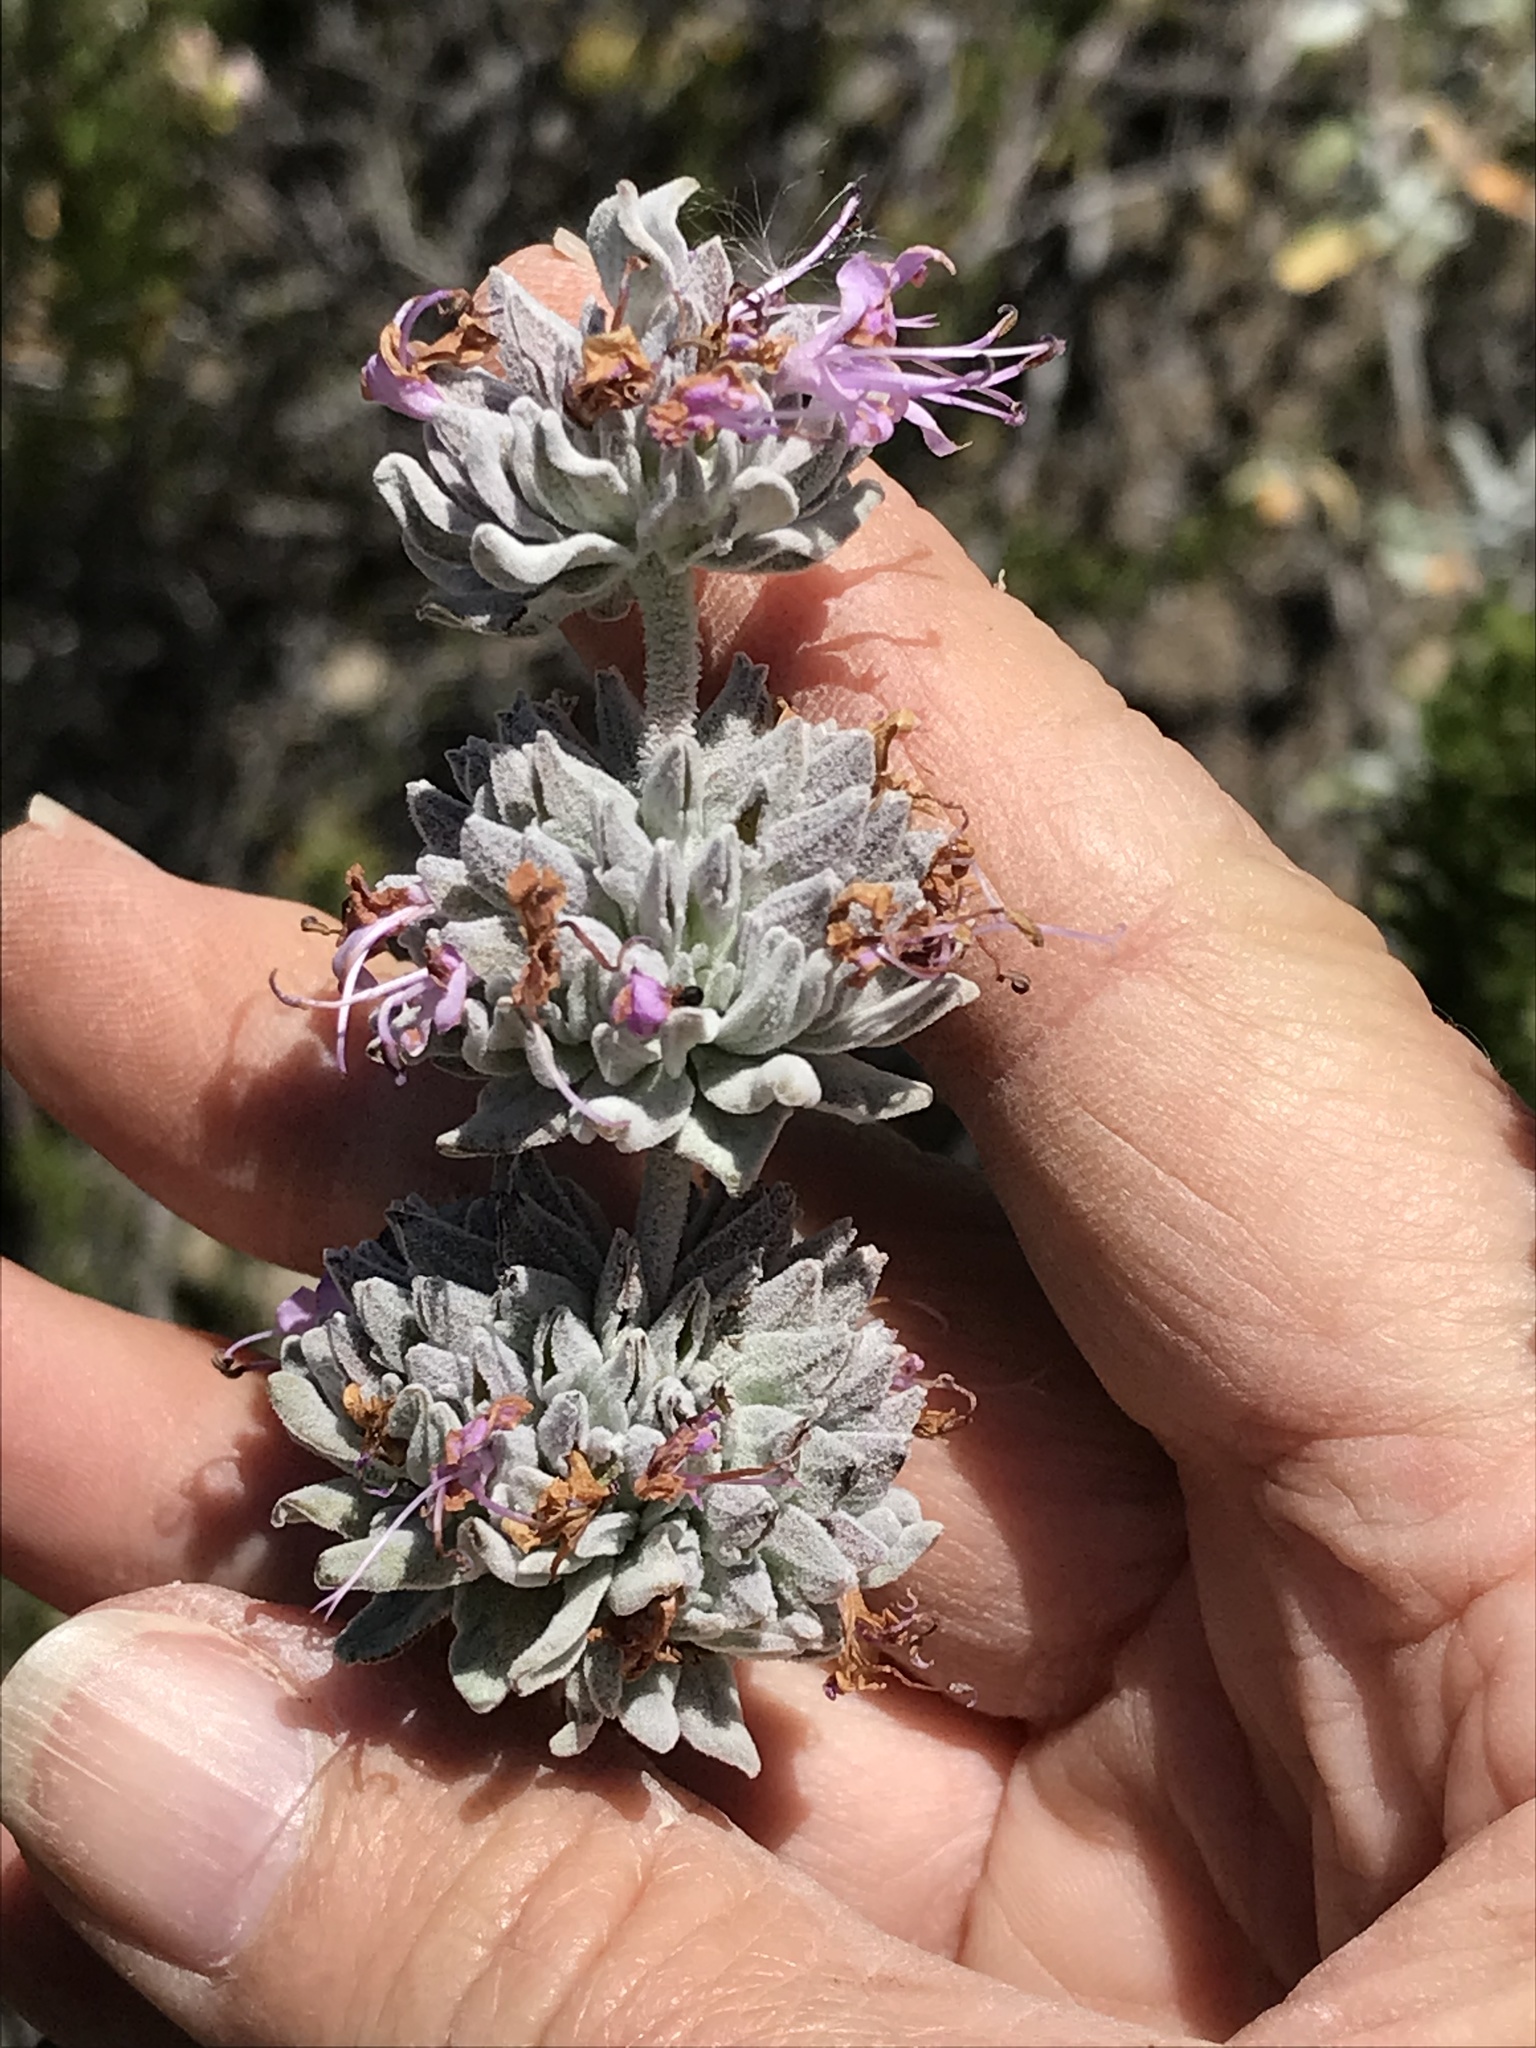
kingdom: Plantae
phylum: Tracheophyta
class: Magnoliopsida
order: Lamiales
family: Lamiaceae
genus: Salvia
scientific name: Salvia leucophylla
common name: Purple sage
